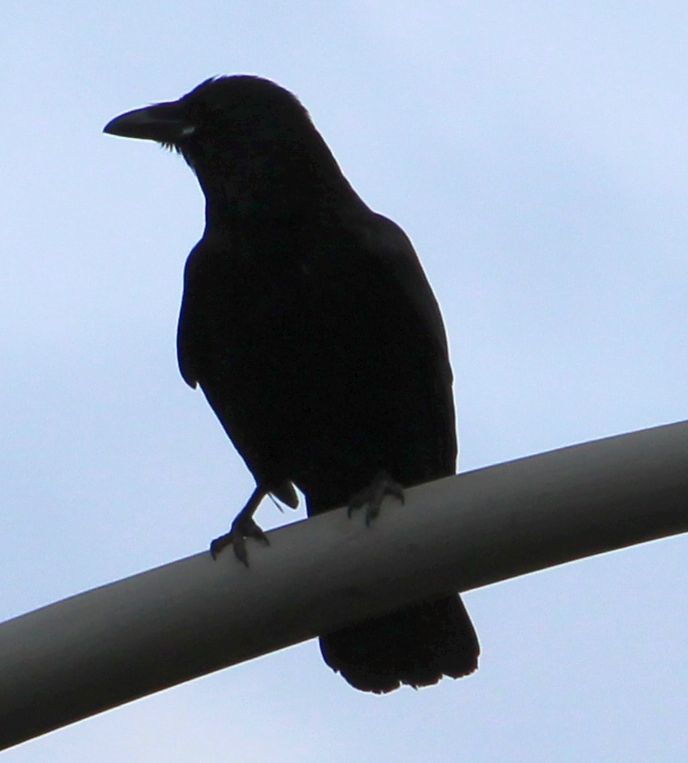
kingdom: Animalia
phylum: Chordata
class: Aves
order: Passeriformes
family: Corvidae
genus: Corvus
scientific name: Corvus corone
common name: Carrion crow
